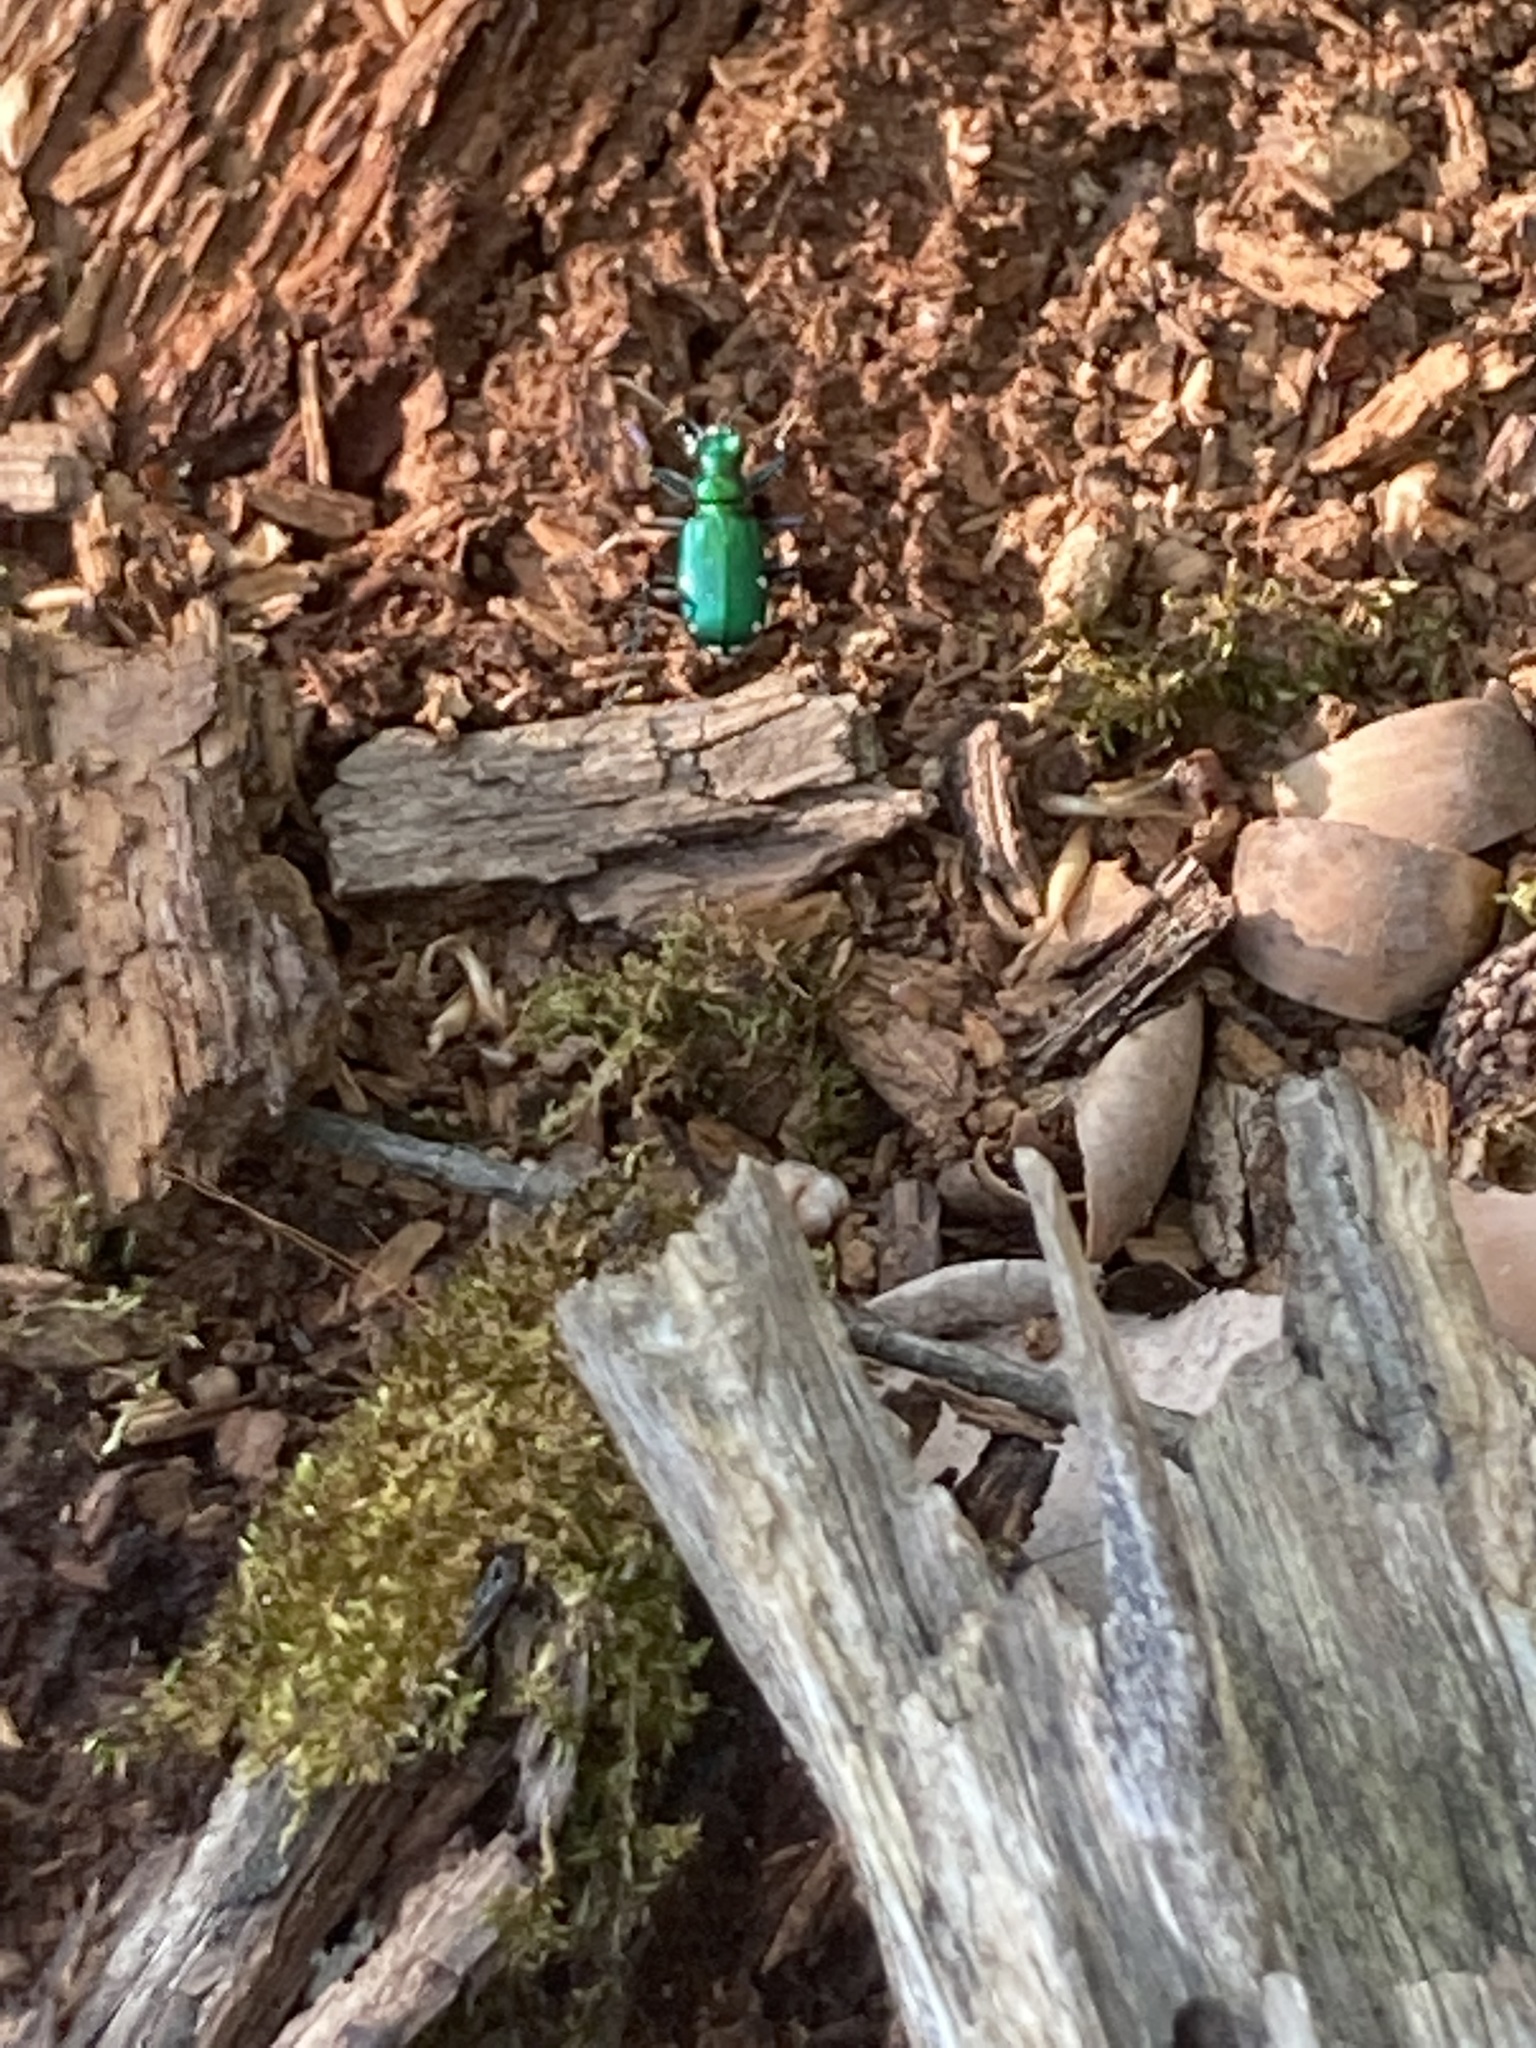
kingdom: Animalia
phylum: Arthropoda
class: Insecta
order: Coleoptera
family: Carabidae
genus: Cicindela
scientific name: Cicindela sexguttata
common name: Six-spotted tiger beetle
